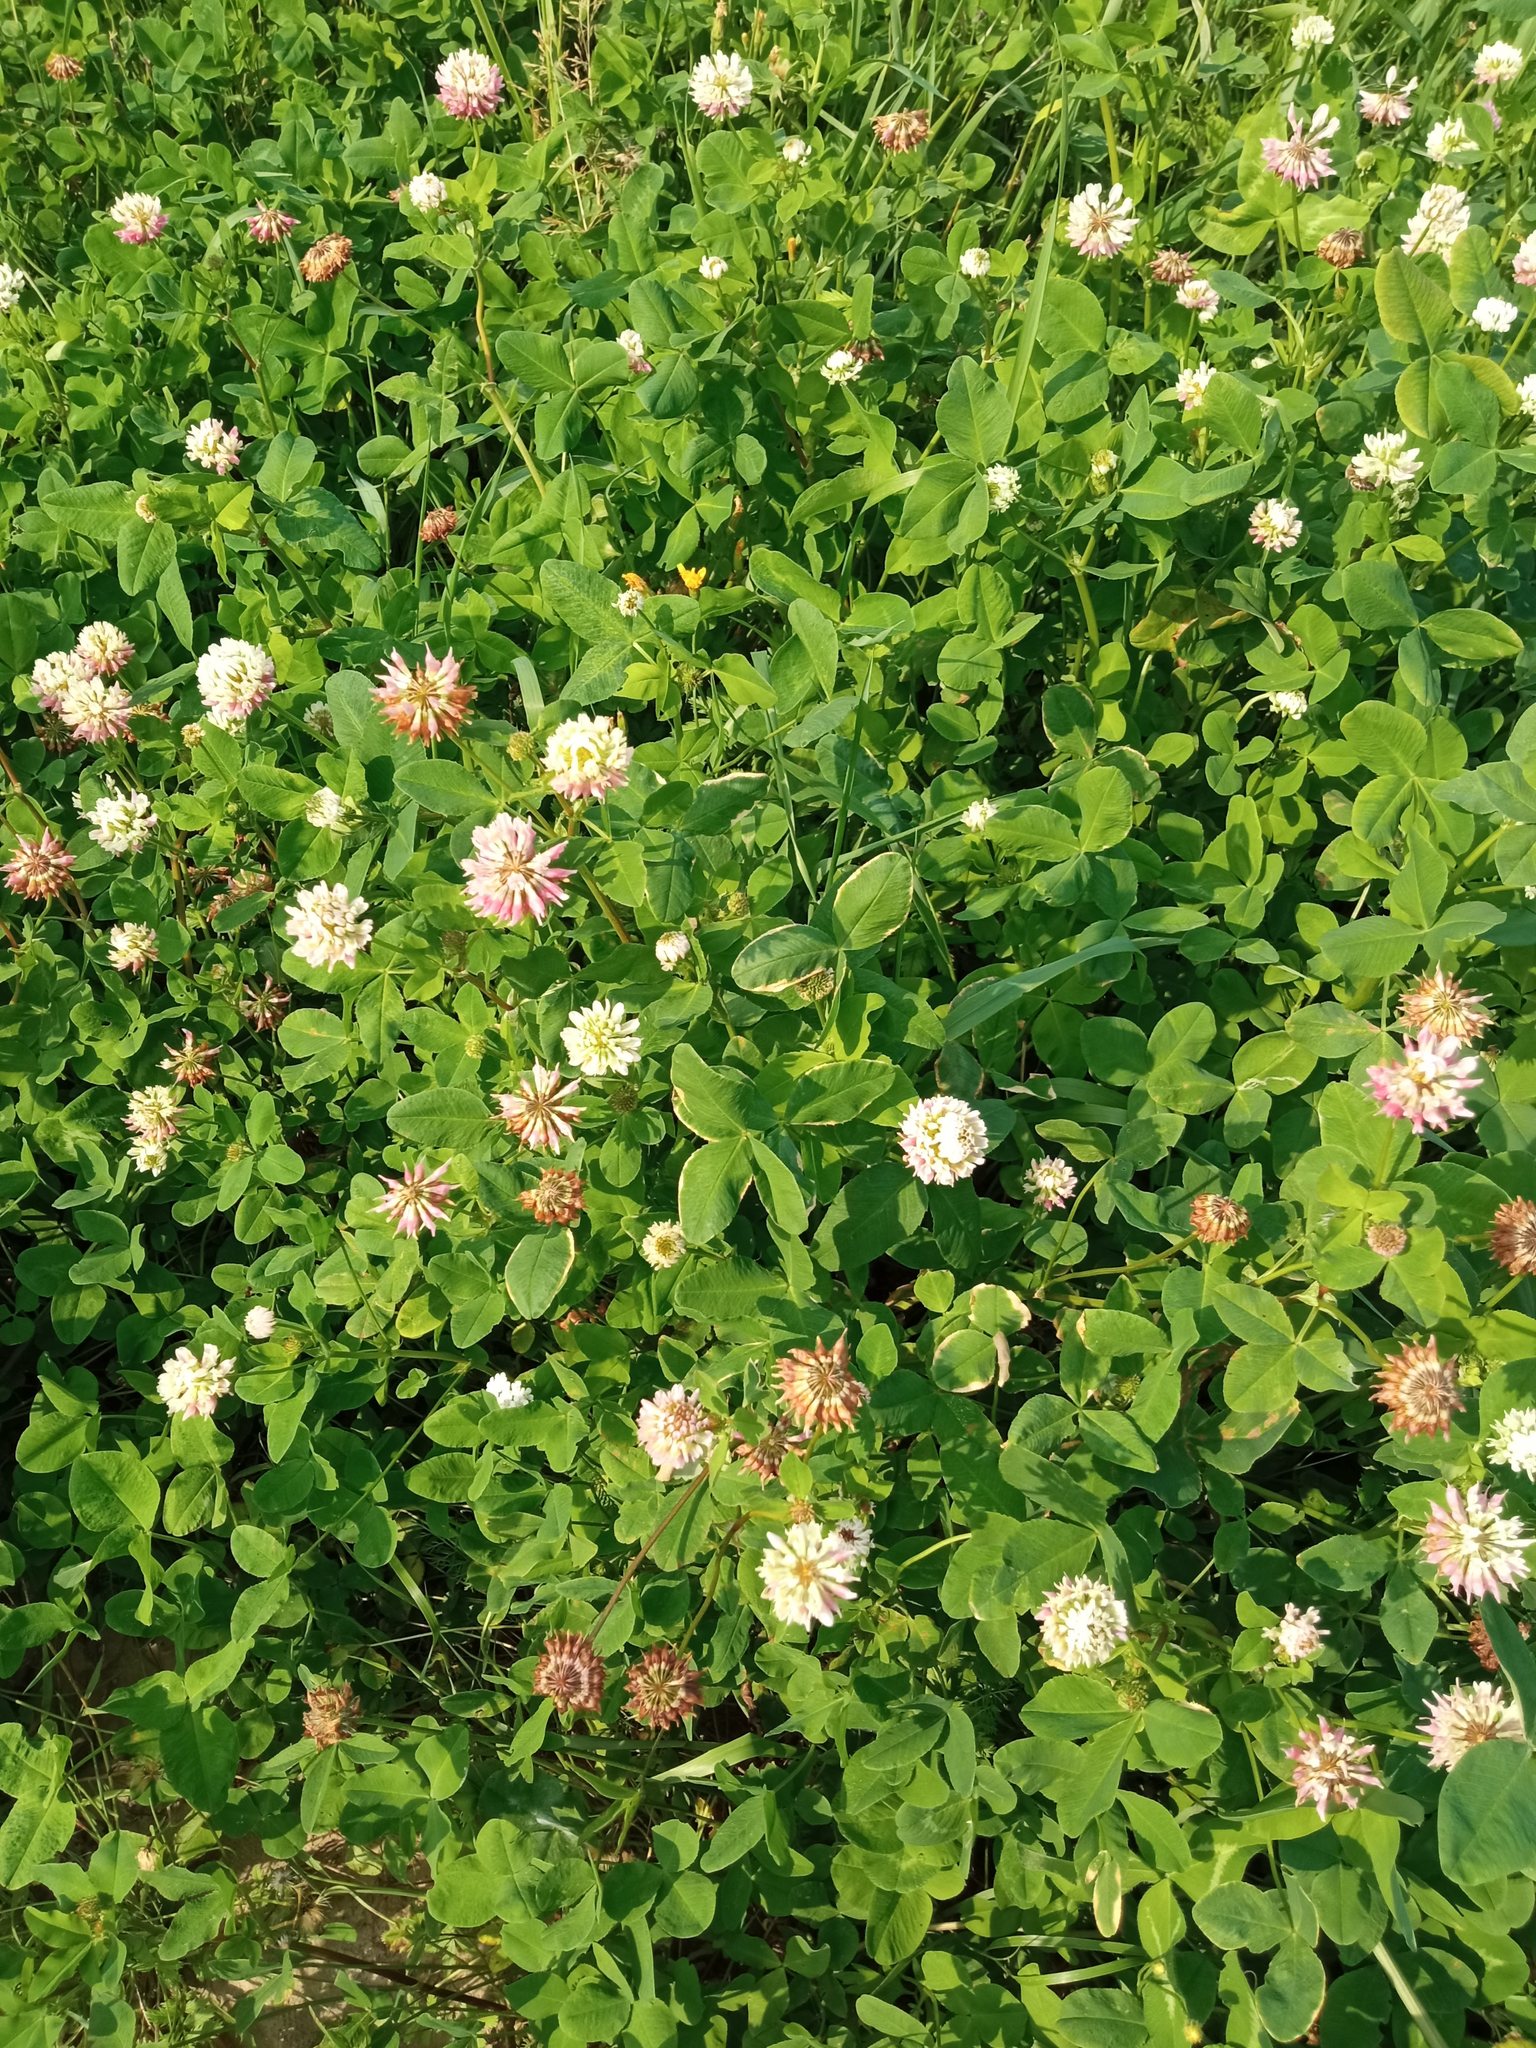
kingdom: Plantae
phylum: Tracheophyta
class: Magnoliopsida
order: Fabales
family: Fabaceae
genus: Trifolium
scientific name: Trifolium hybridum
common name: Alsike clover
